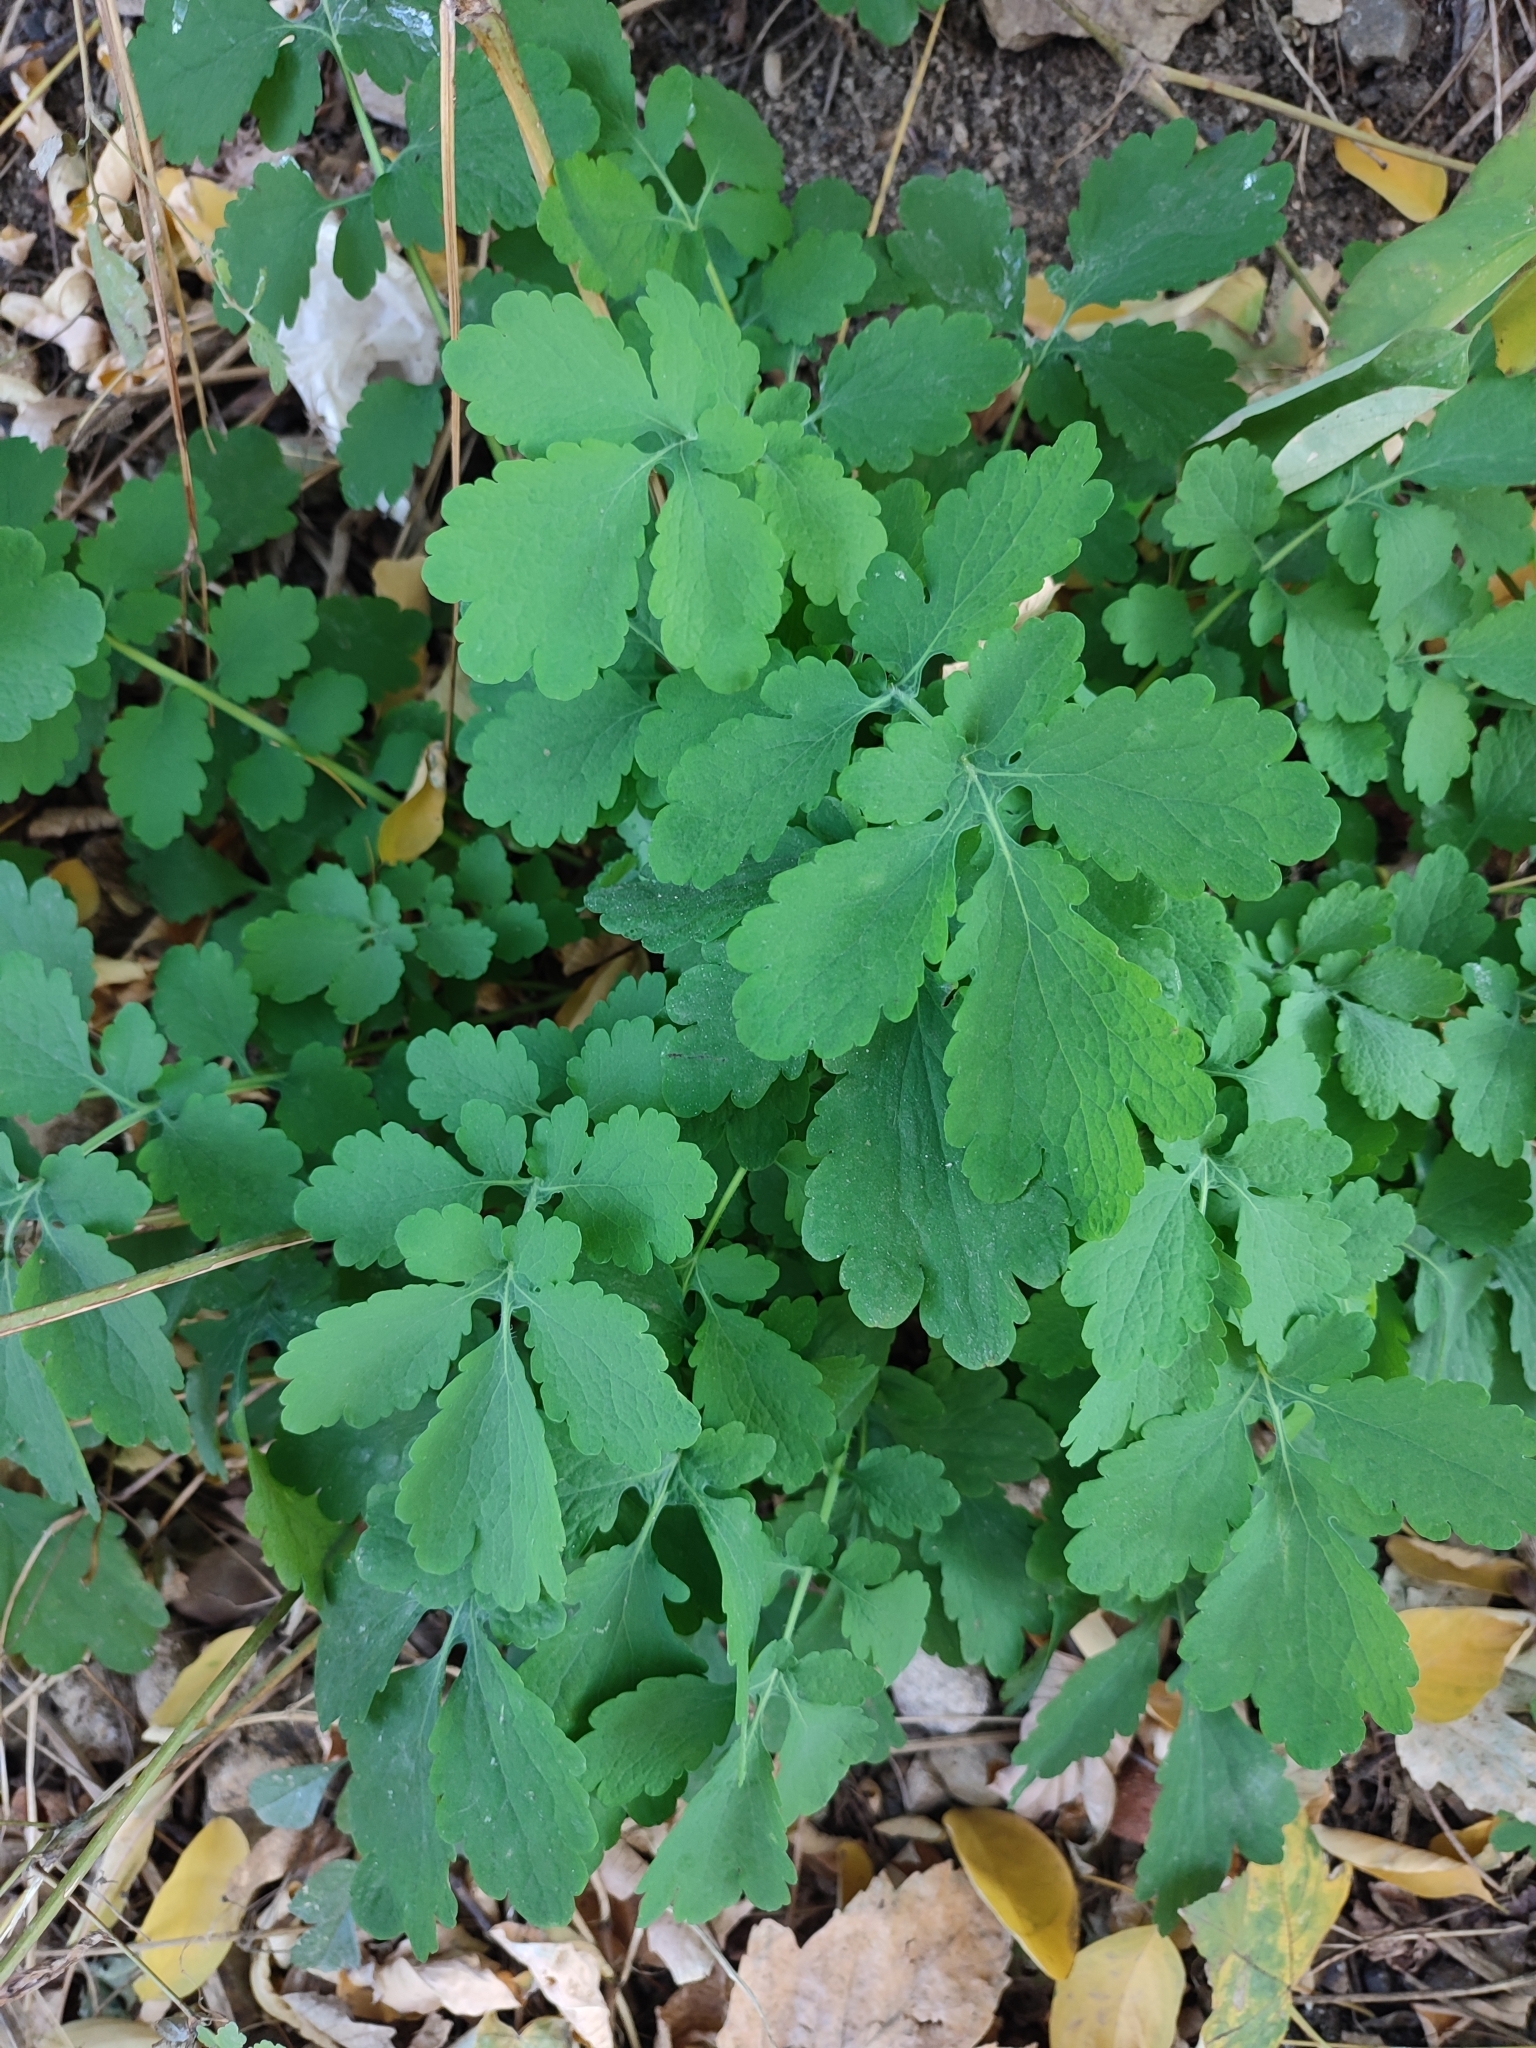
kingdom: Plantae
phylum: Tracheophyta
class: Magnoliopsida
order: Ranunculales
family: Papaveraceae
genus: Chelidonium
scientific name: Chelidonium majus
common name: Greater celandine
